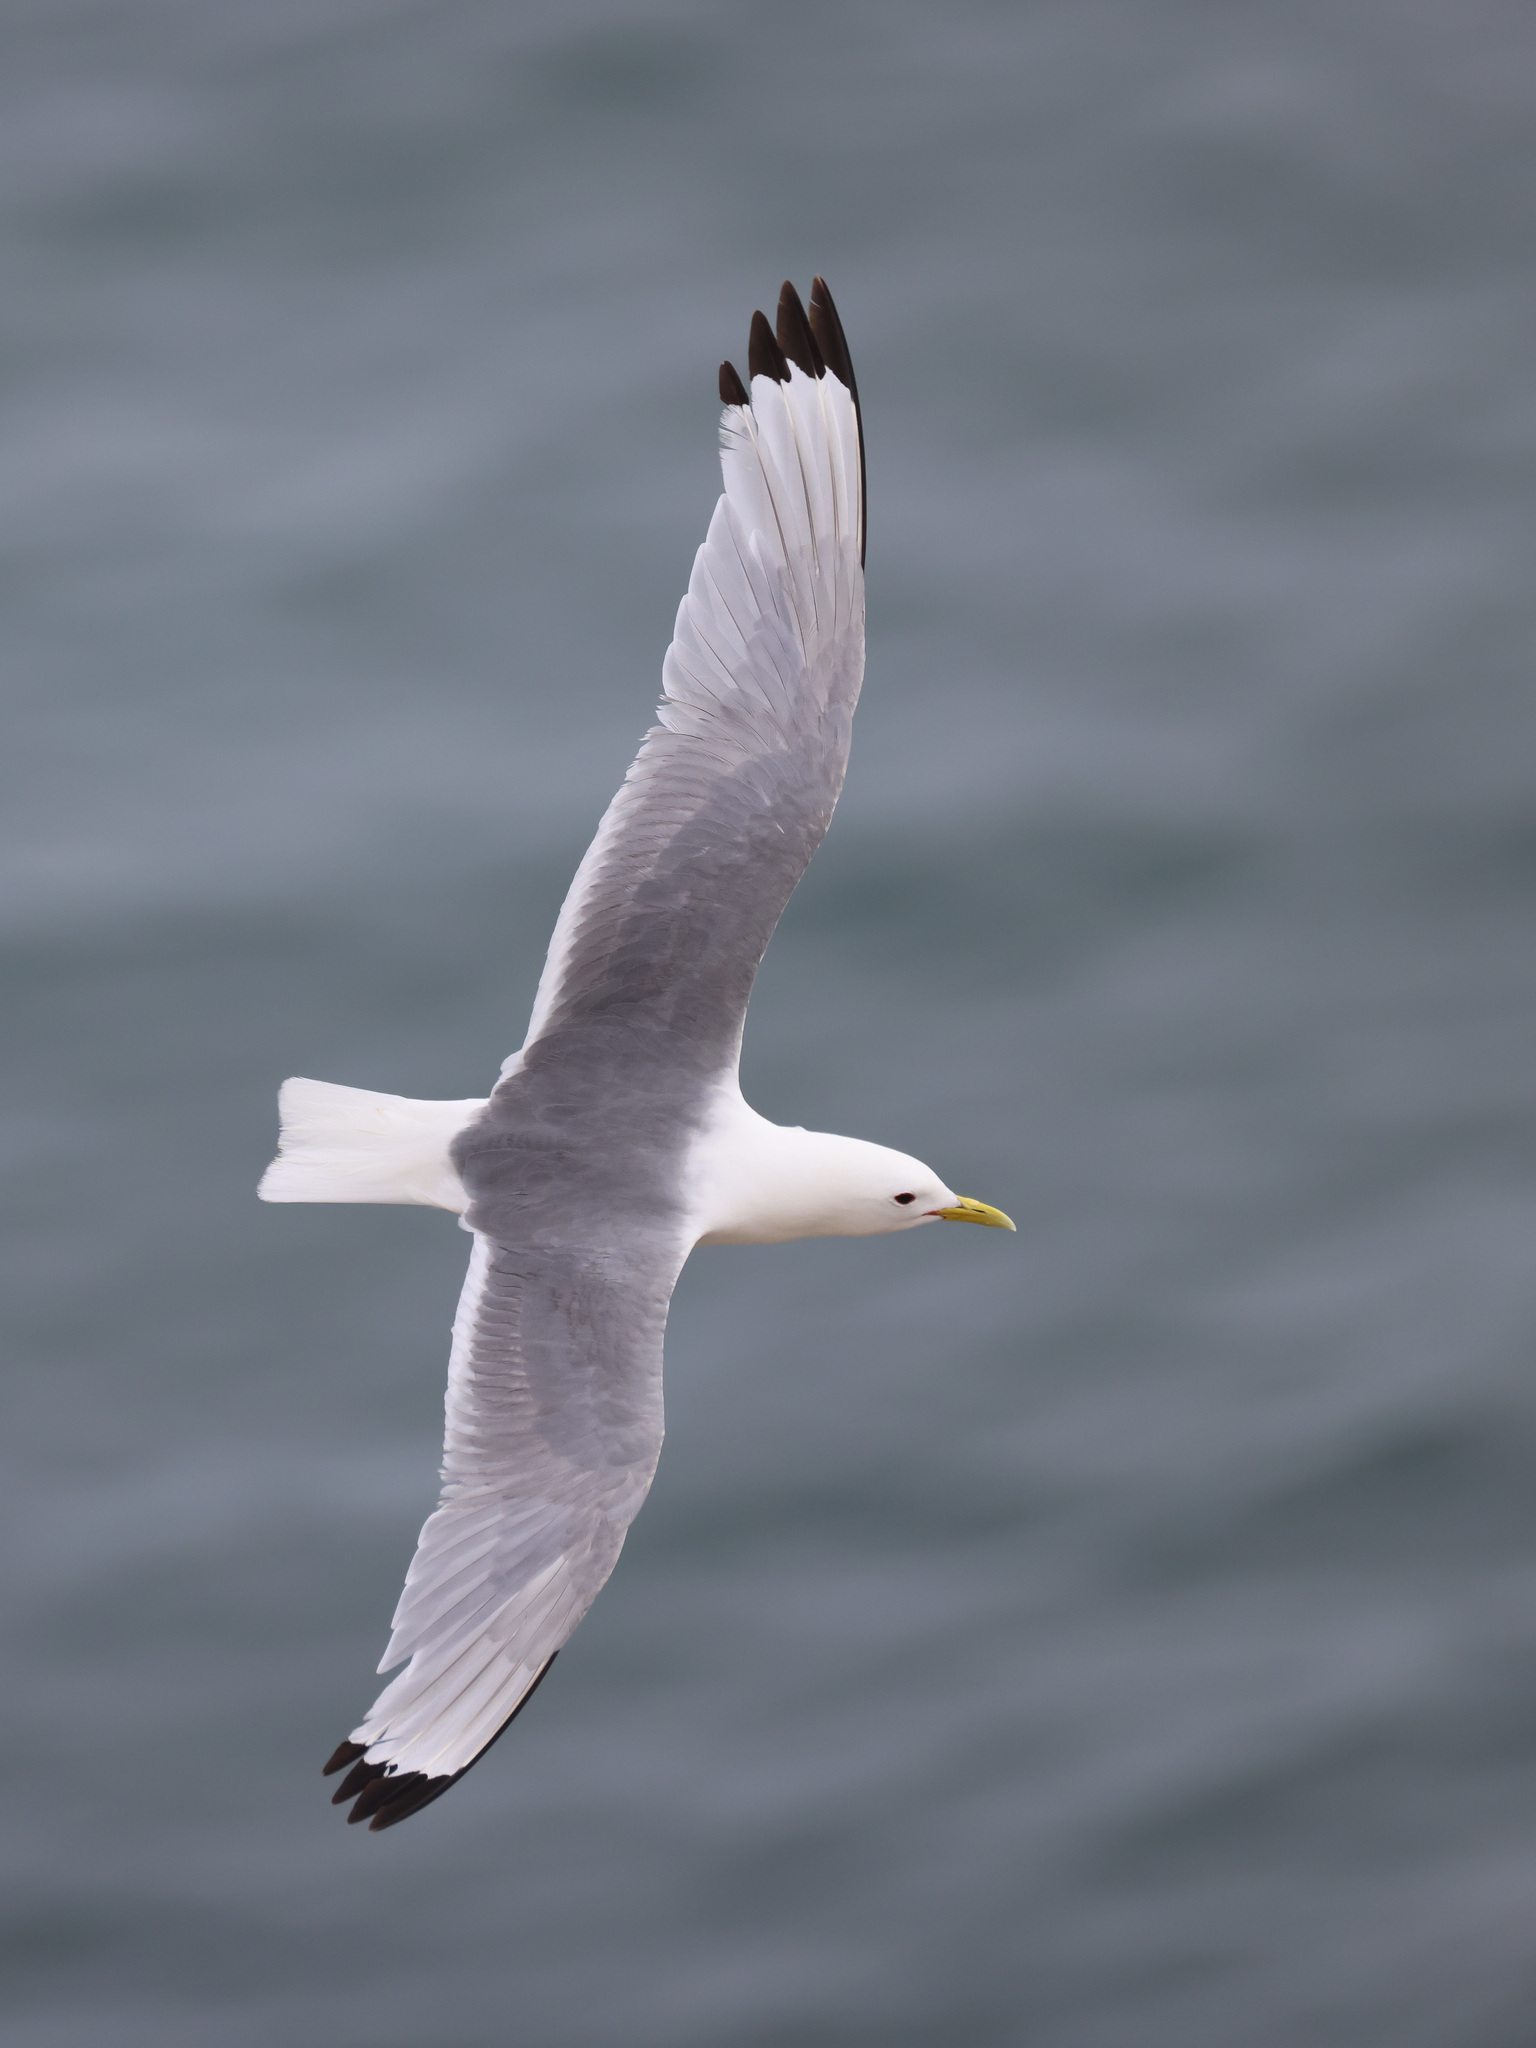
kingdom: Animalia
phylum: Chordata
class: Aves
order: Charadriiformes
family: Laridae
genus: Rissa
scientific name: Rissa tridactyla
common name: Black-legged kittiwake
